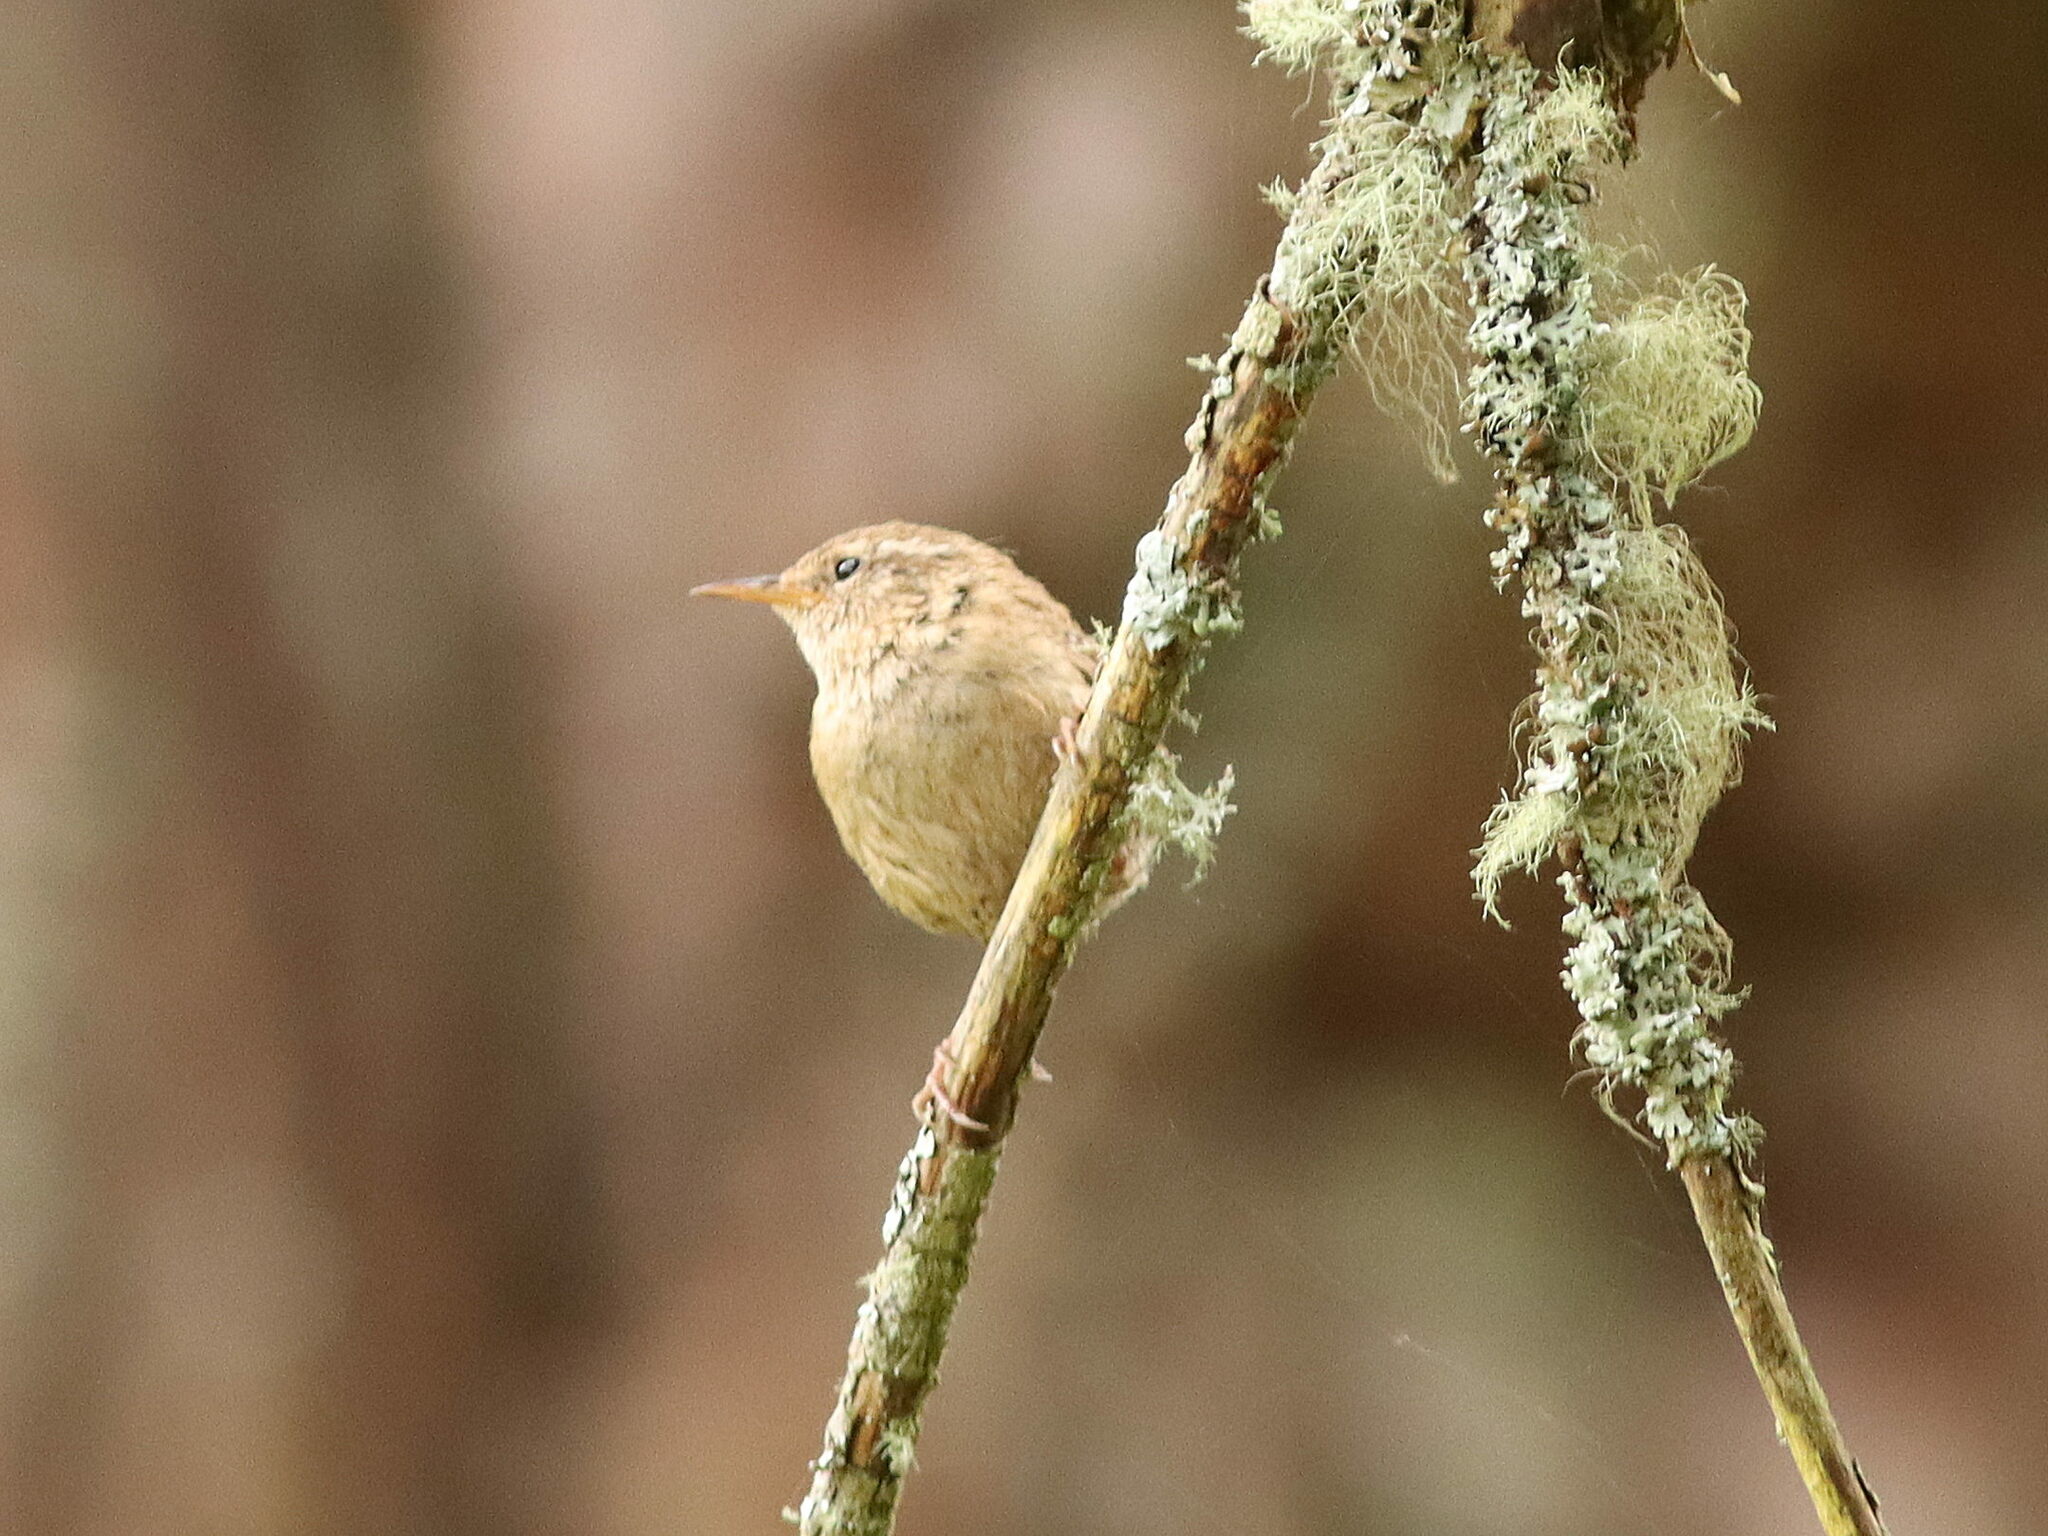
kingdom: Animalia
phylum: Chordata
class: Aves
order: Passeriformes
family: Troglodytidae
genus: Troglodytes
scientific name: Troglodytes troglodytes
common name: Eurasian wren
